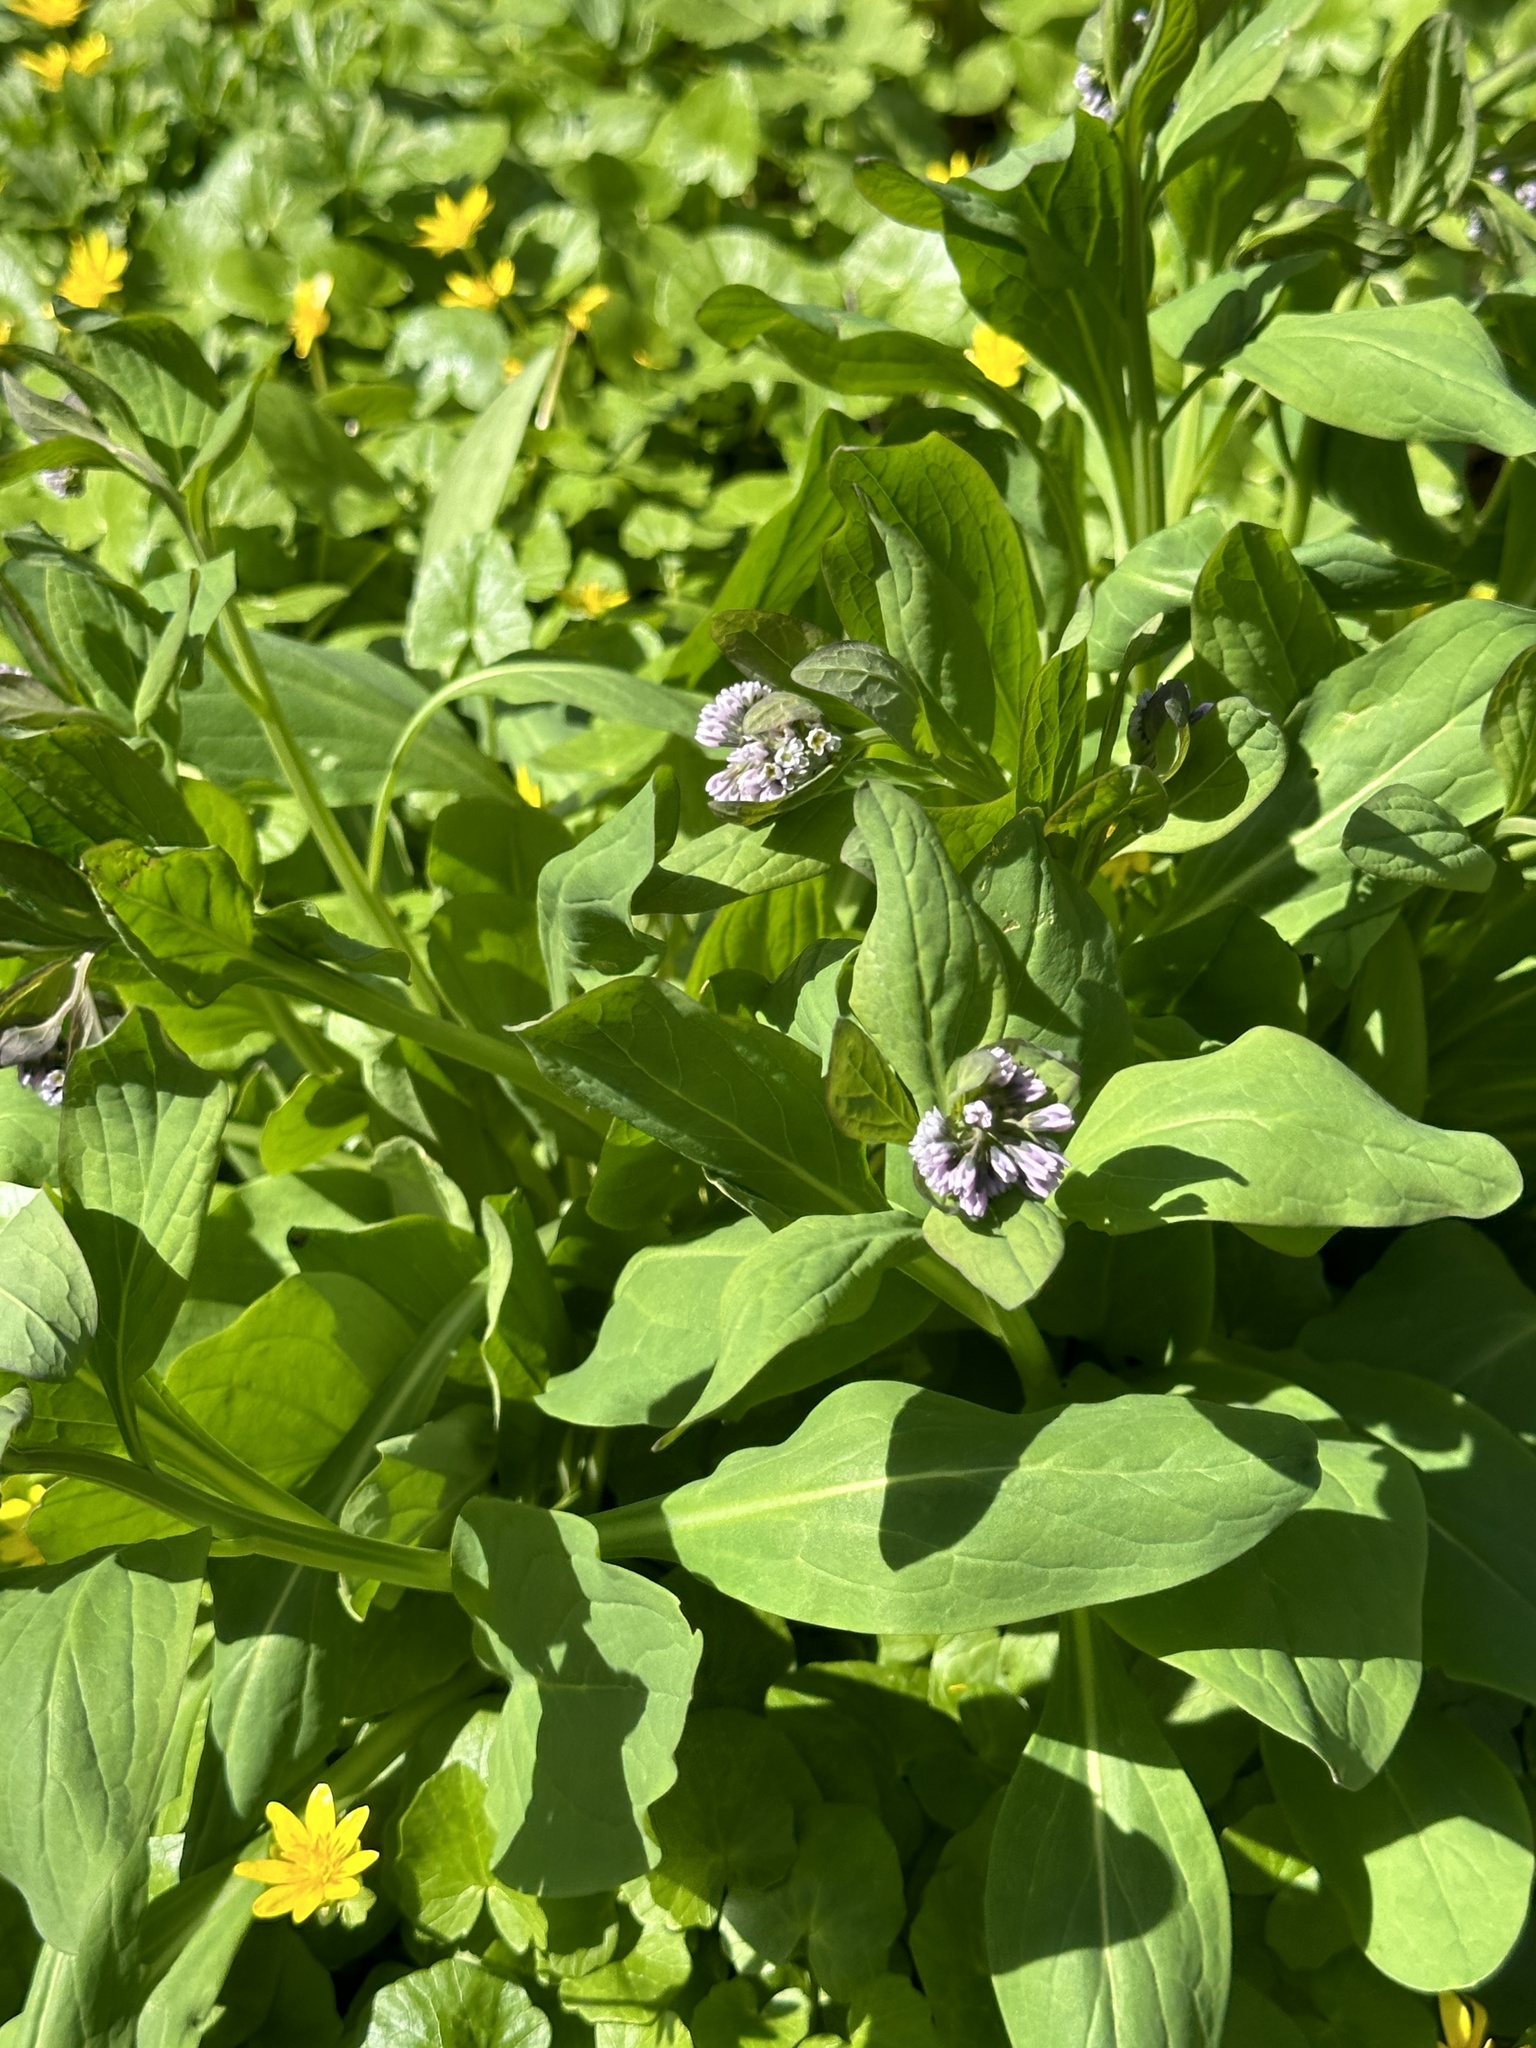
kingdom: Plantae
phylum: Tracheophyta
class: Magnoliopsida
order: Boraginales
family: Boraginaceae
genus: Mertensia
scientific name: Mertensia virginica
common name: Virginia bluebells
